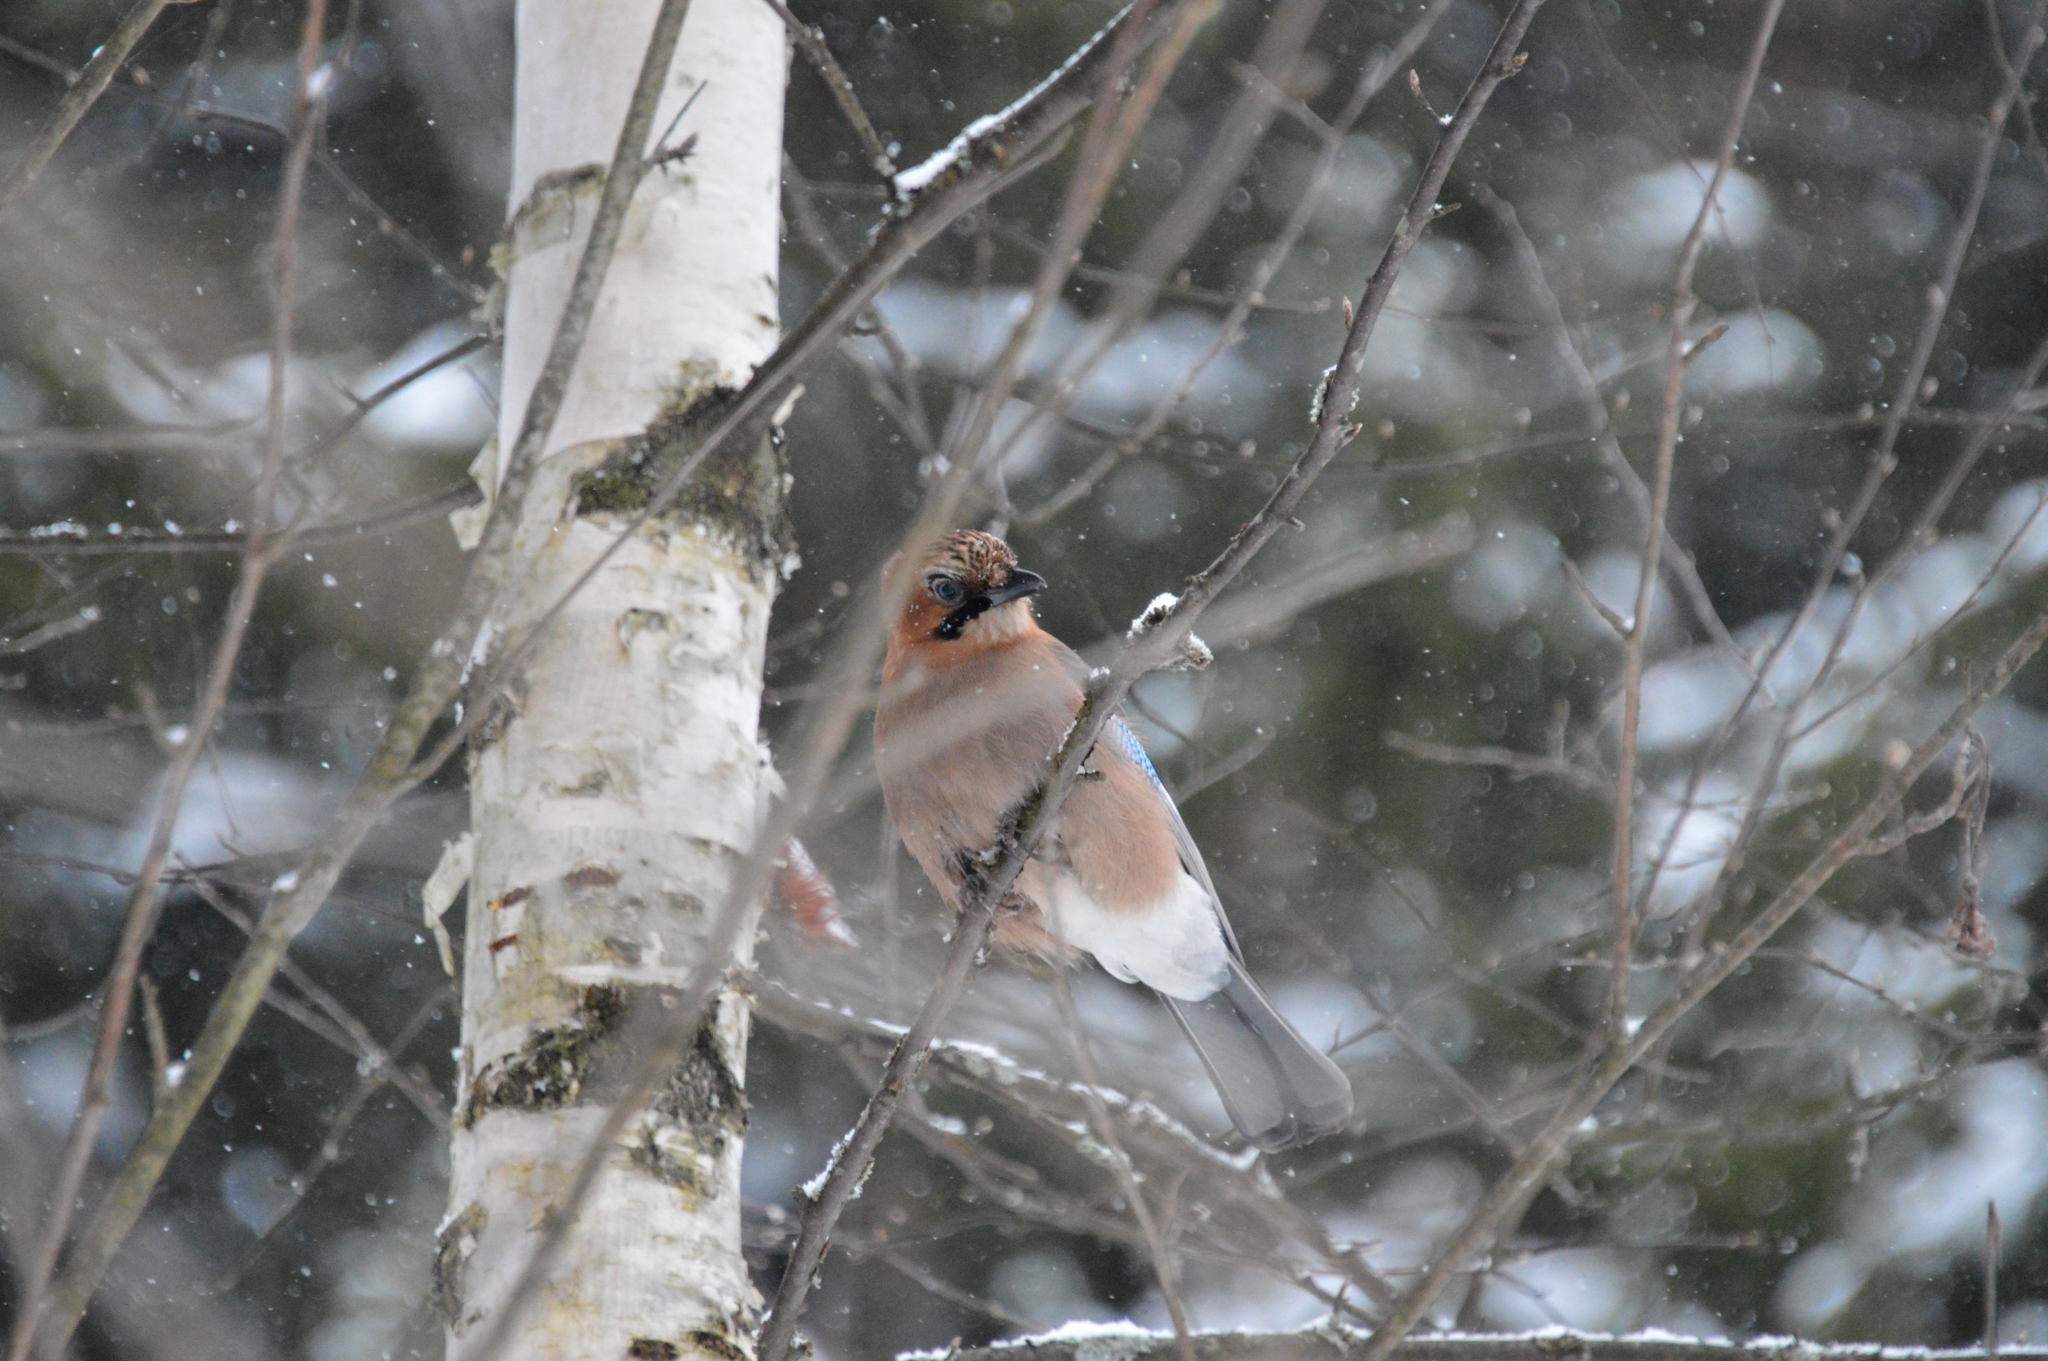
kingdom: Animalia
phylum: Chordata
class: Aves
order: Passeriformes
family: Corvidae
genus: Garrulus
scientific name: Garrulus glandarius
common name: Eurasian jay
